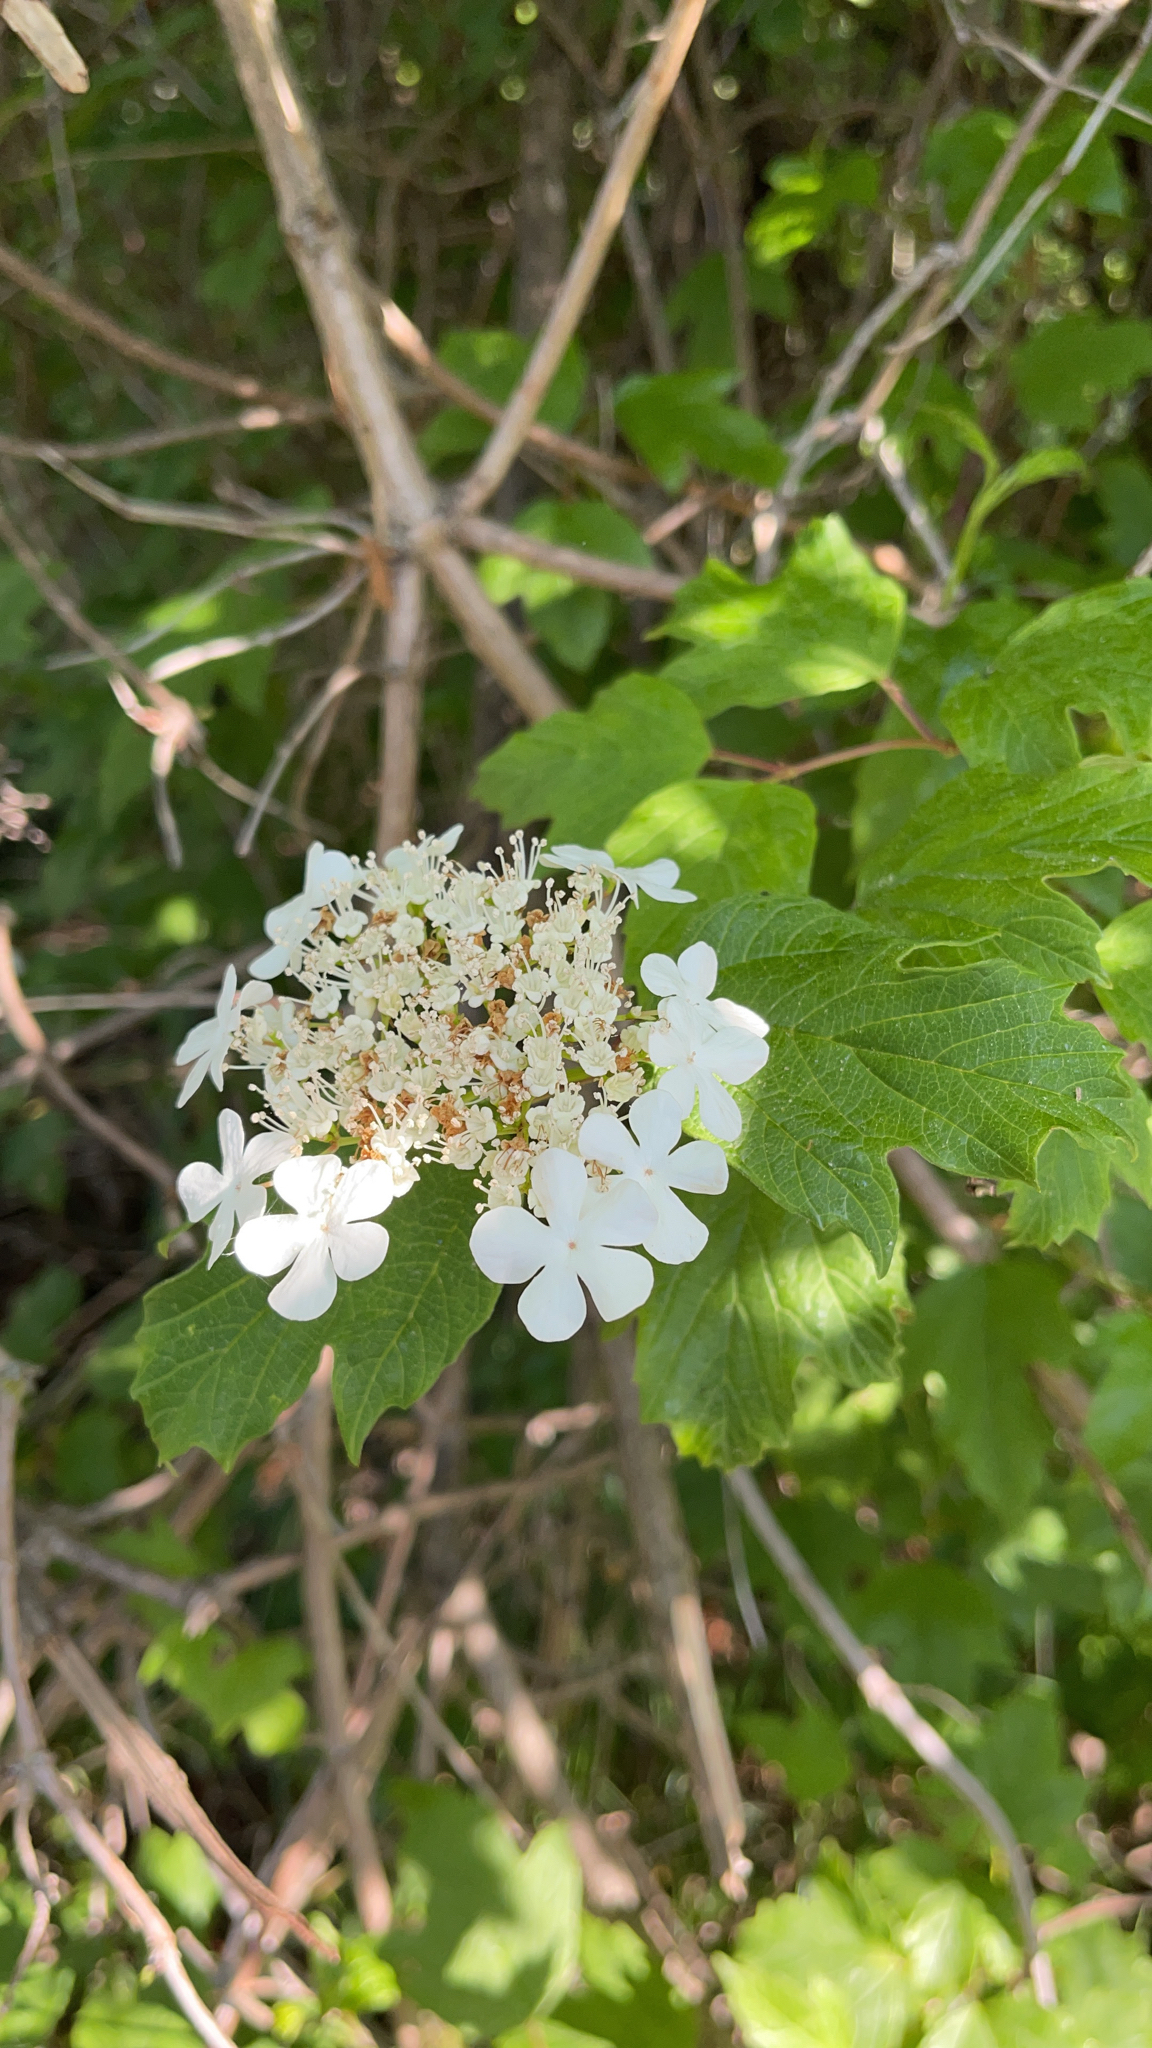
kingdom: Plantae
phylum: Tracheophyta
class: Magnoliopsida
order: Dipsacales
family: Viburnaceae
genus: Viburnum
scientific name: Viburnum opulus
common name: Guelder-rose
